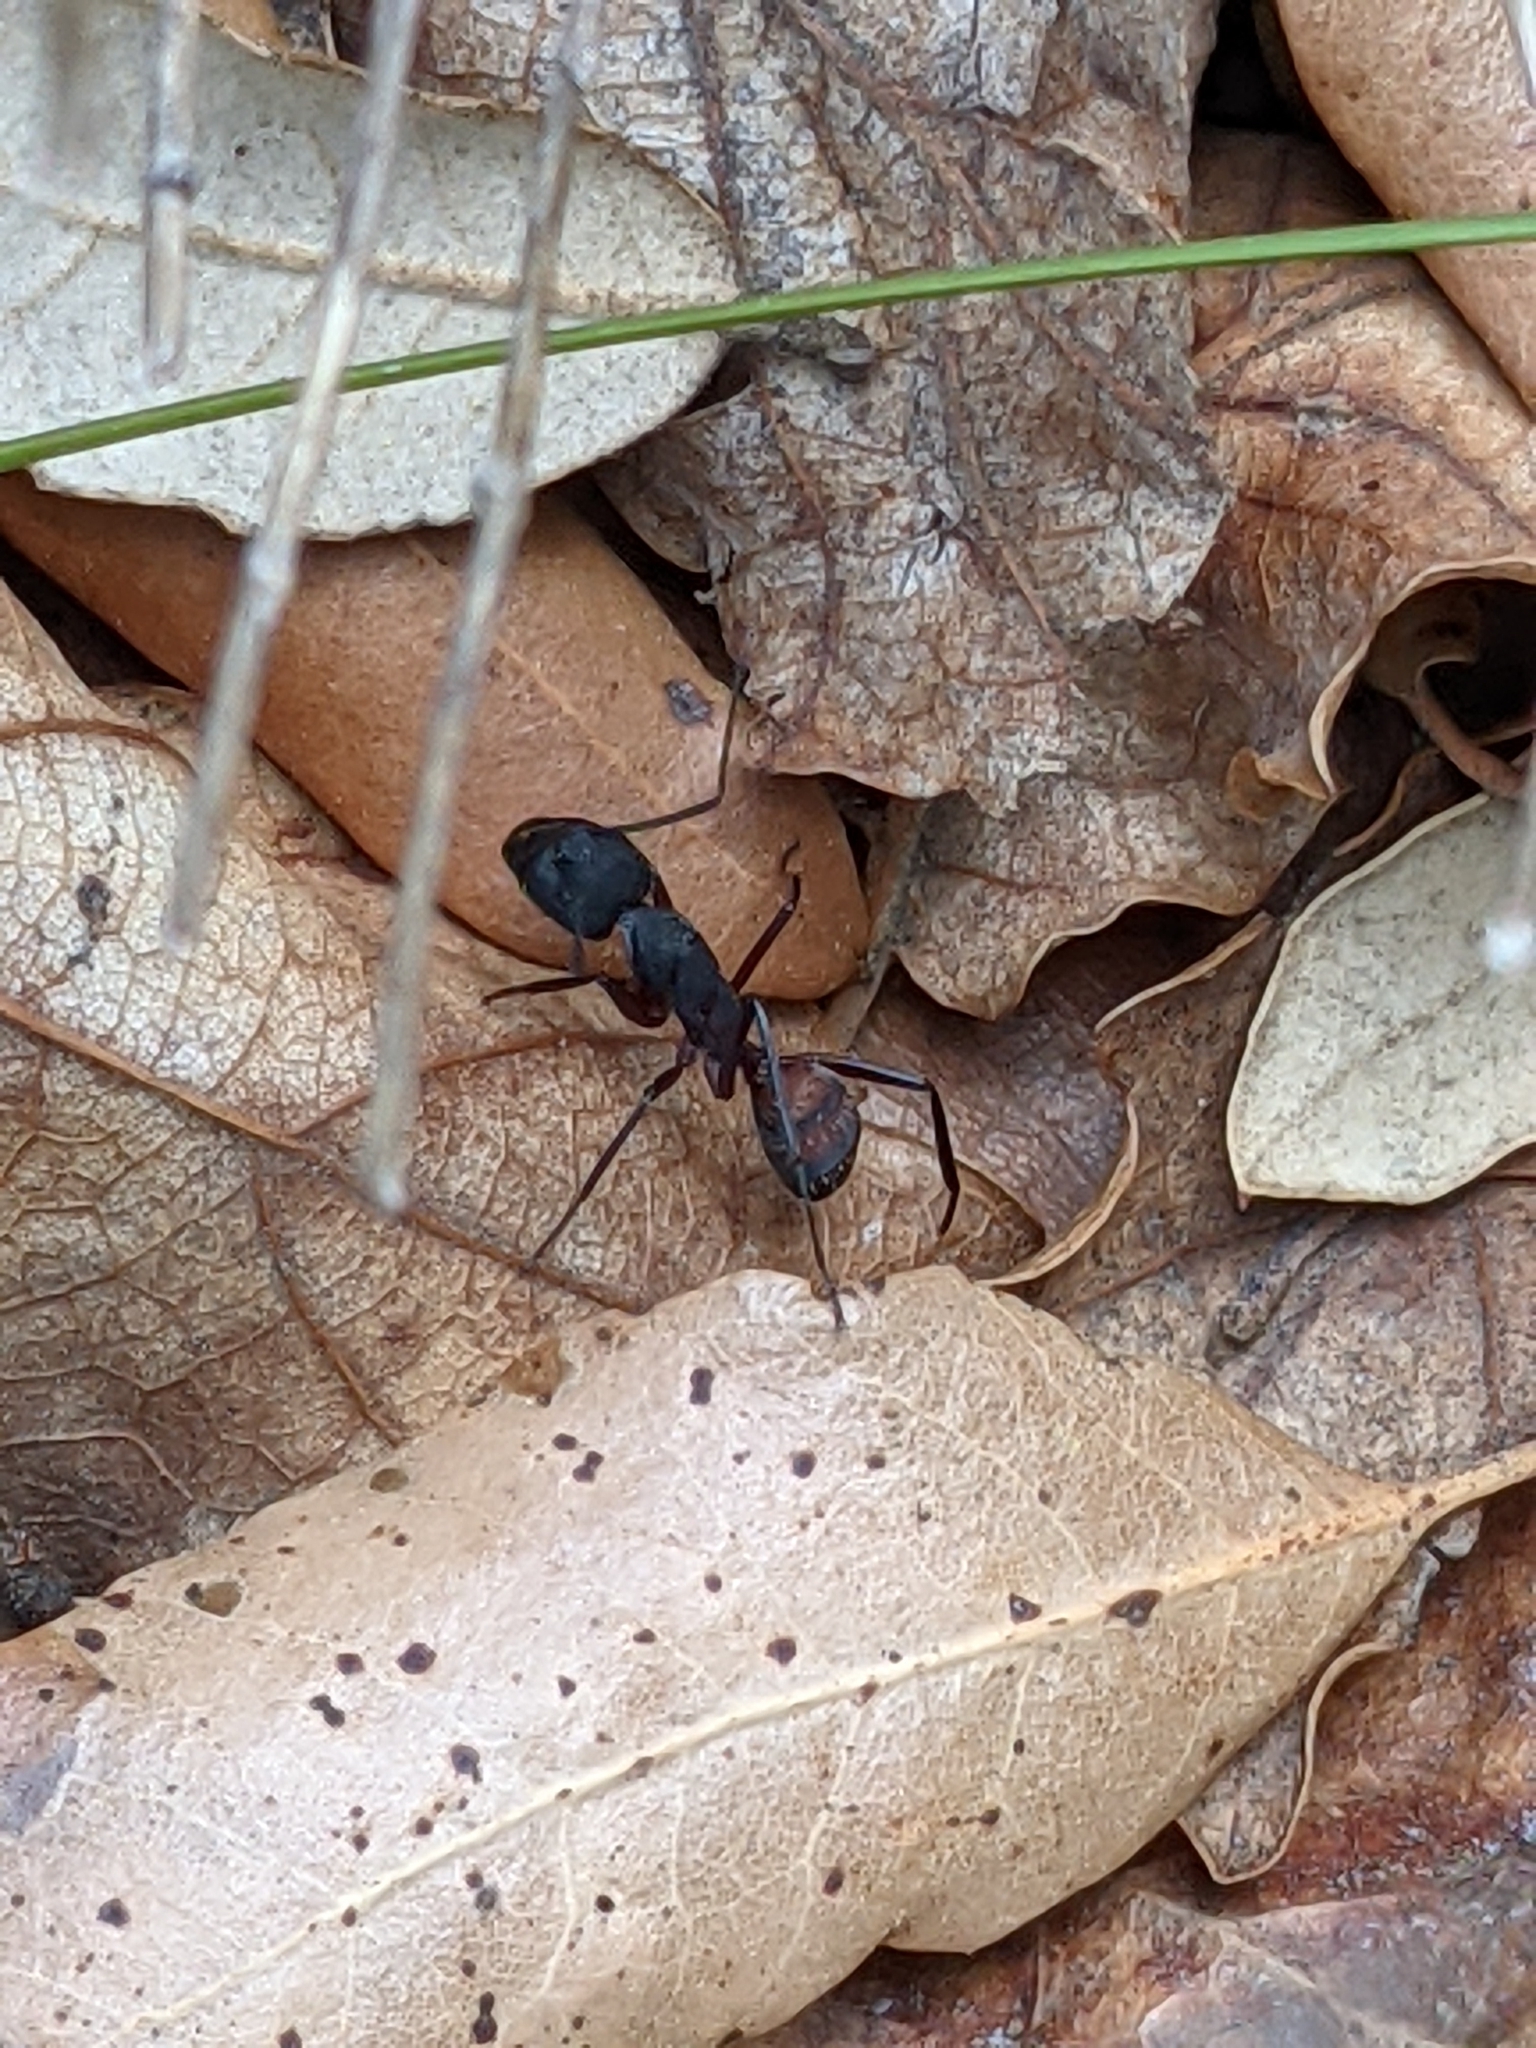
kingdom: Animalia
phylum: Arthropoda
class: Insecta
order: Hymenoptera
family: Formicidae
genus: Camponotus
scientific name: Camponotus cruentatus
